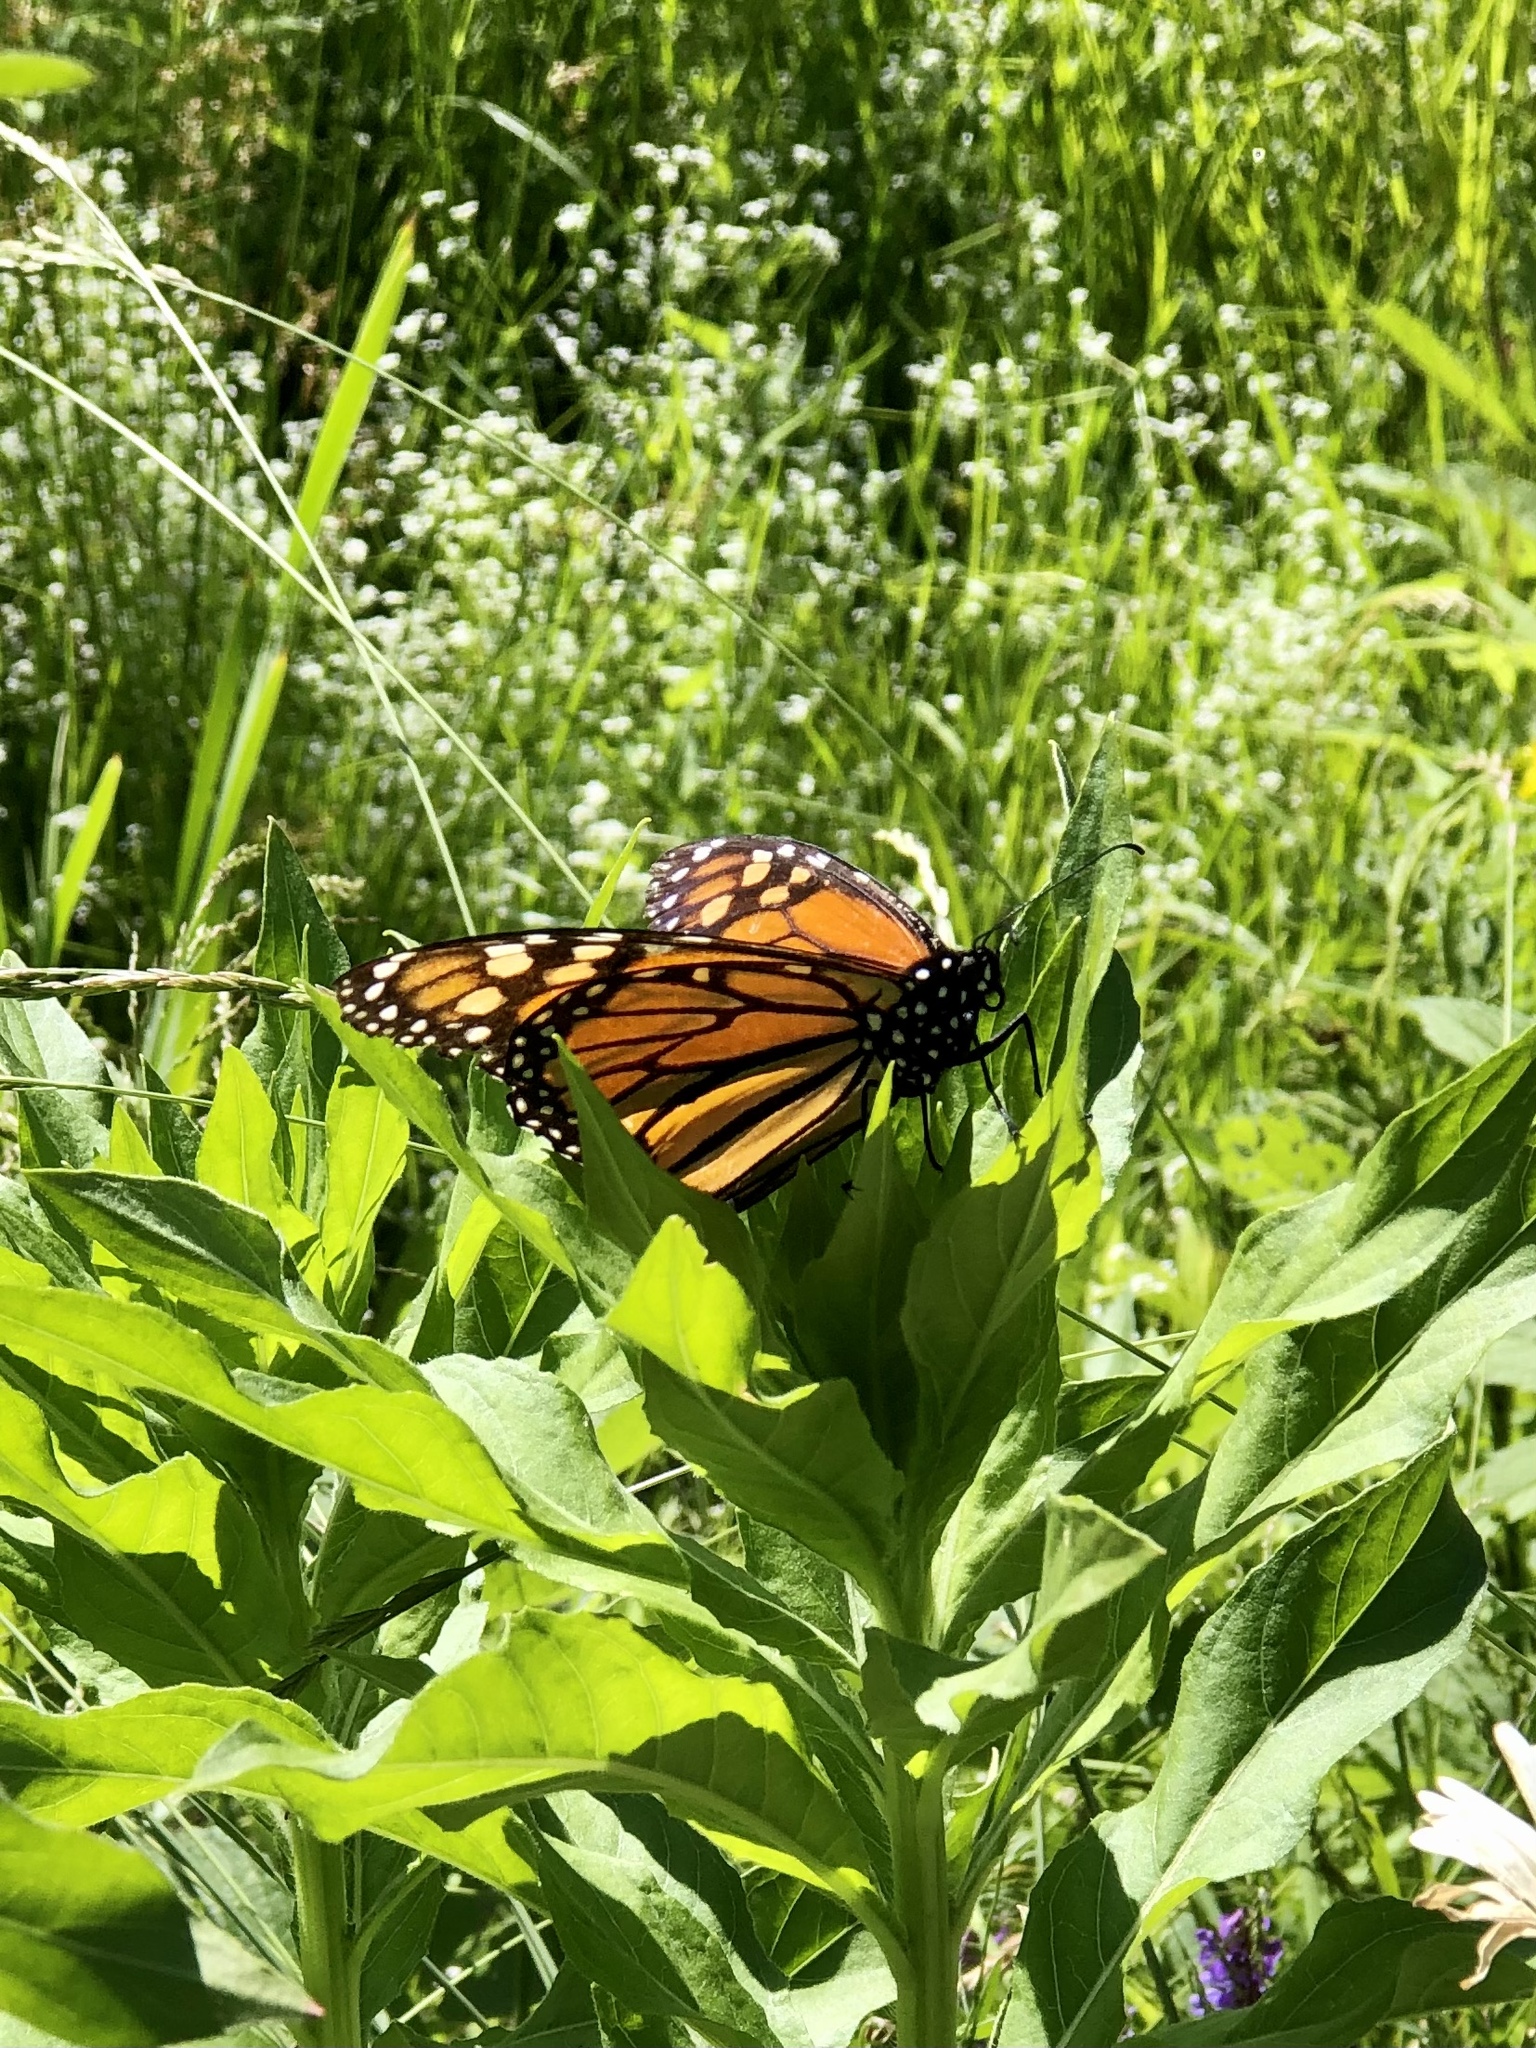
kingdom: Animalia
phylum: Arthropoda
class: Insecta
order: Lepidoptera
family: Nymphalidae
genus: Danaus
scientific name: Danaus plexippus
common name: Monarch
